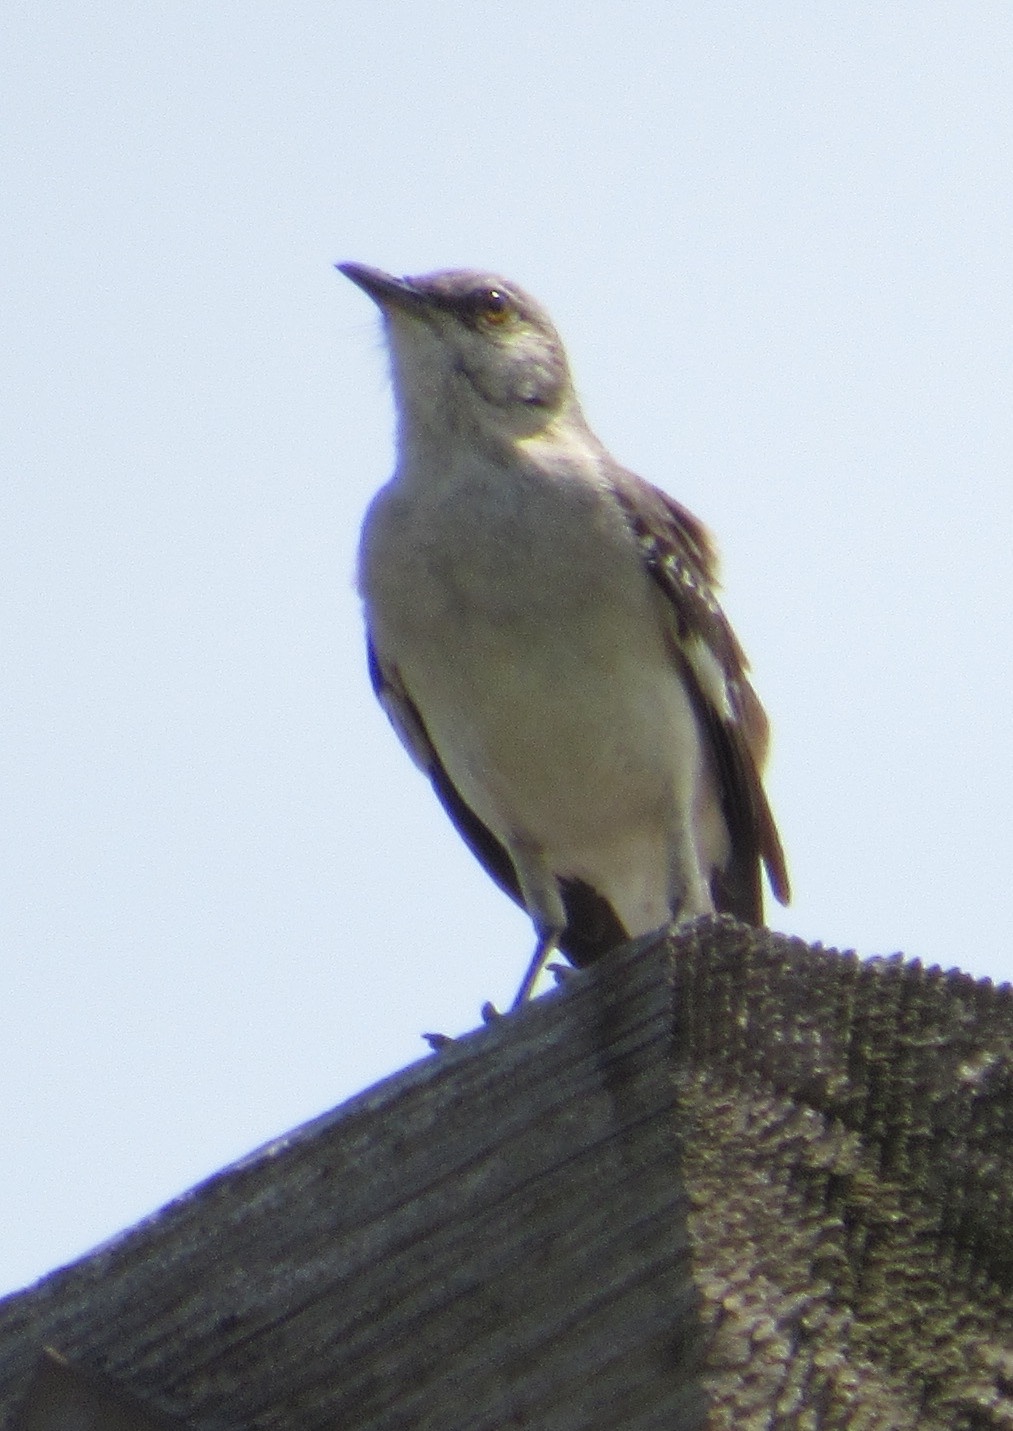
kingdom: Animalia
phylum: Chordata
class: Aves
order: Passeriformes
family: Mimidae
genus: Mimus
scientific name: Mimus polyglottos
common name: Northern mockingbird
